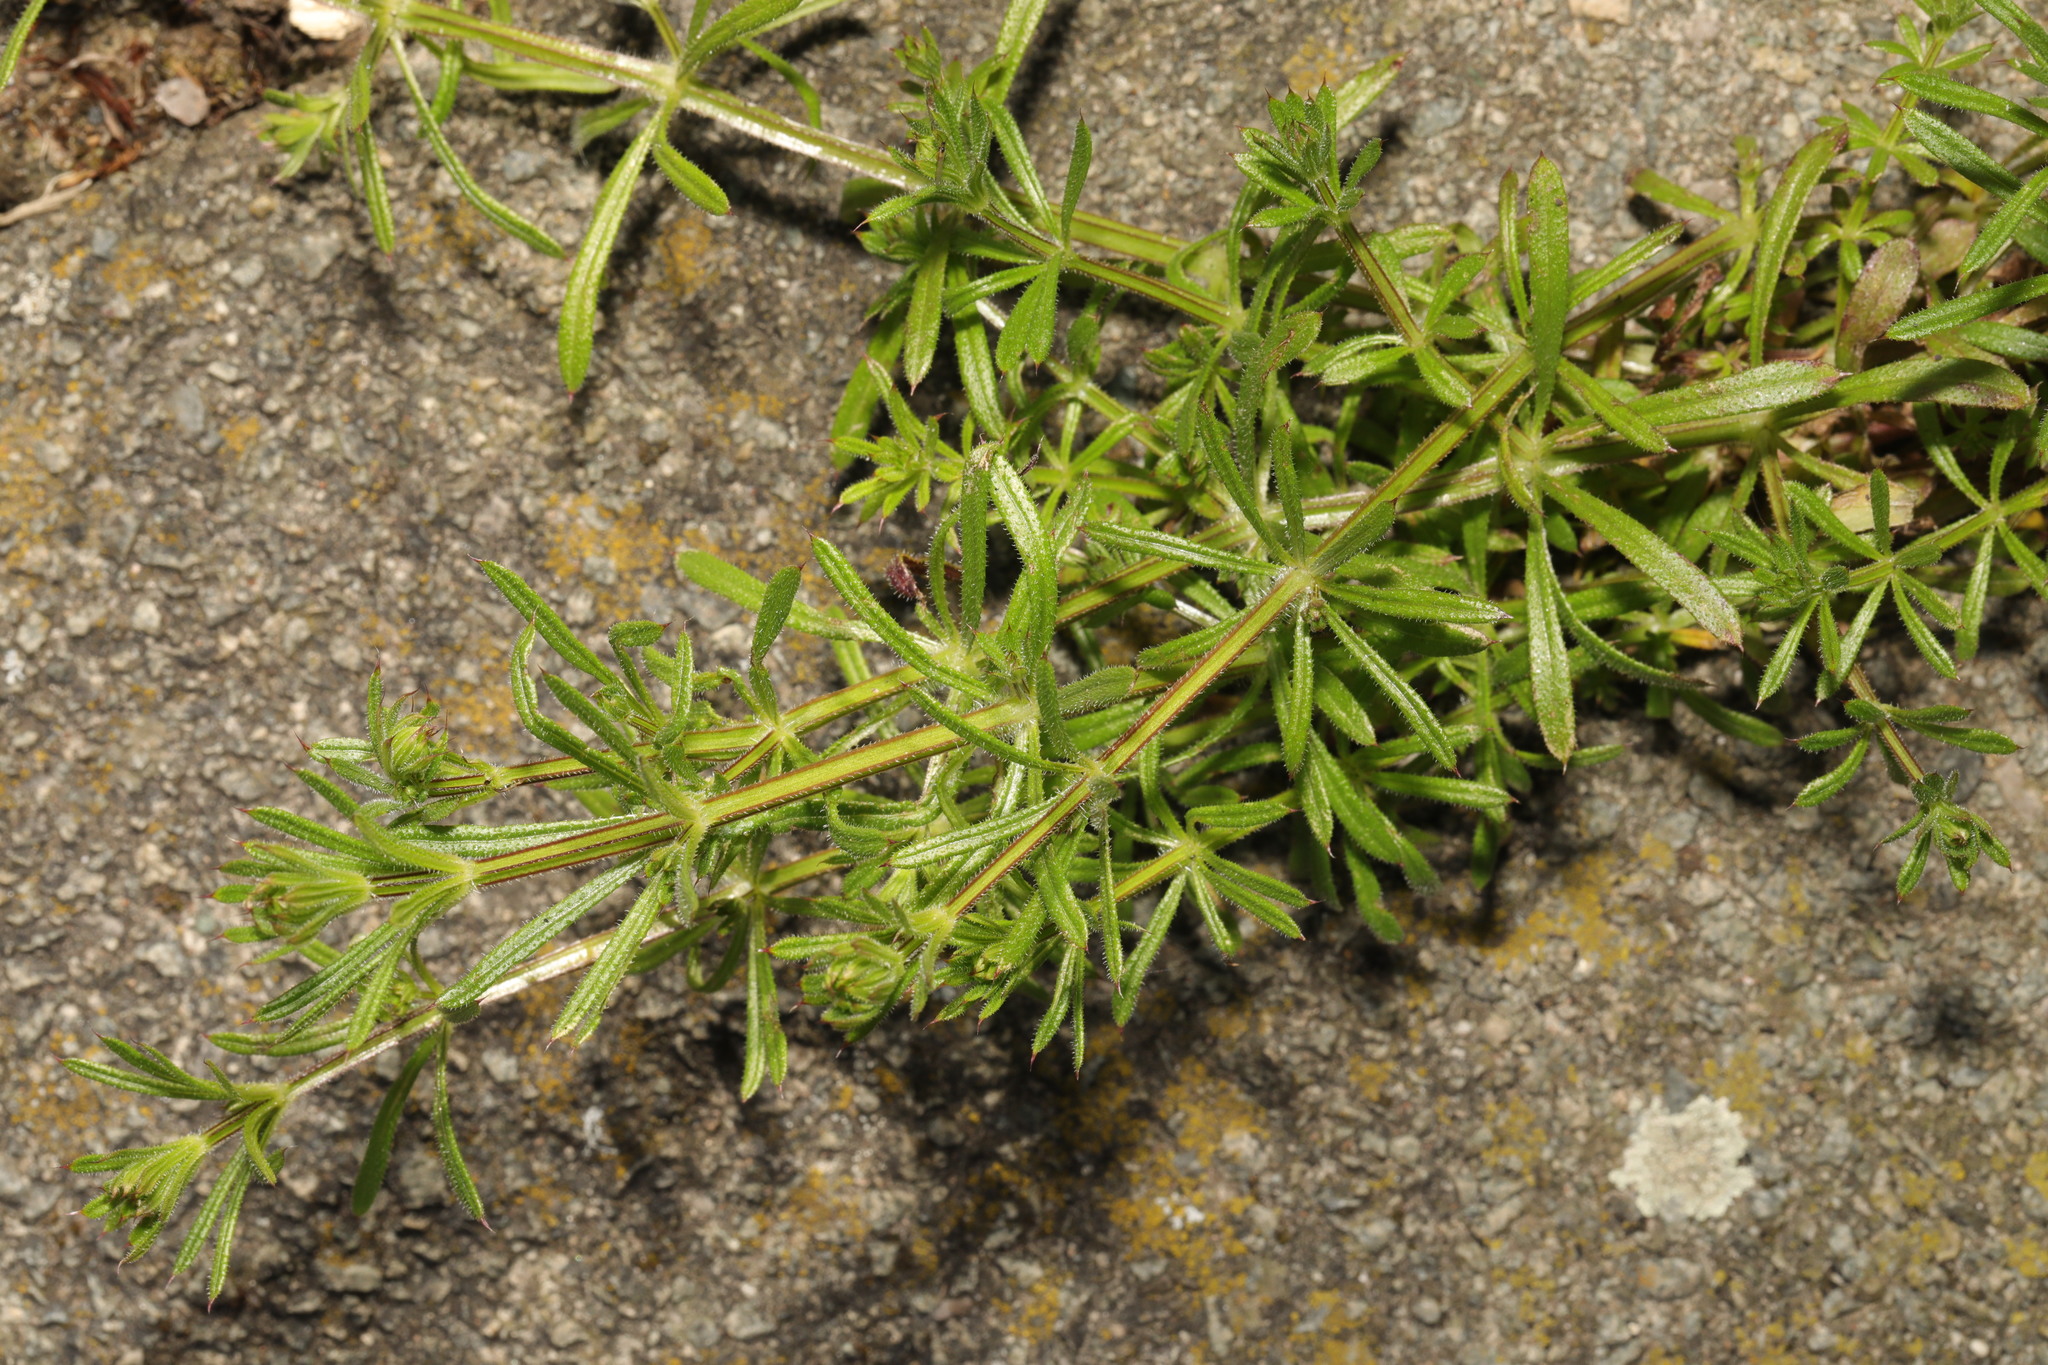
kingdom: Plantae
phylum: Tracheophyta
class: Magnoliopsida
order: Gentianales
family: Rubiaceae
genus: Galium
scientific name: Galium aparine
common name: Cleavers
